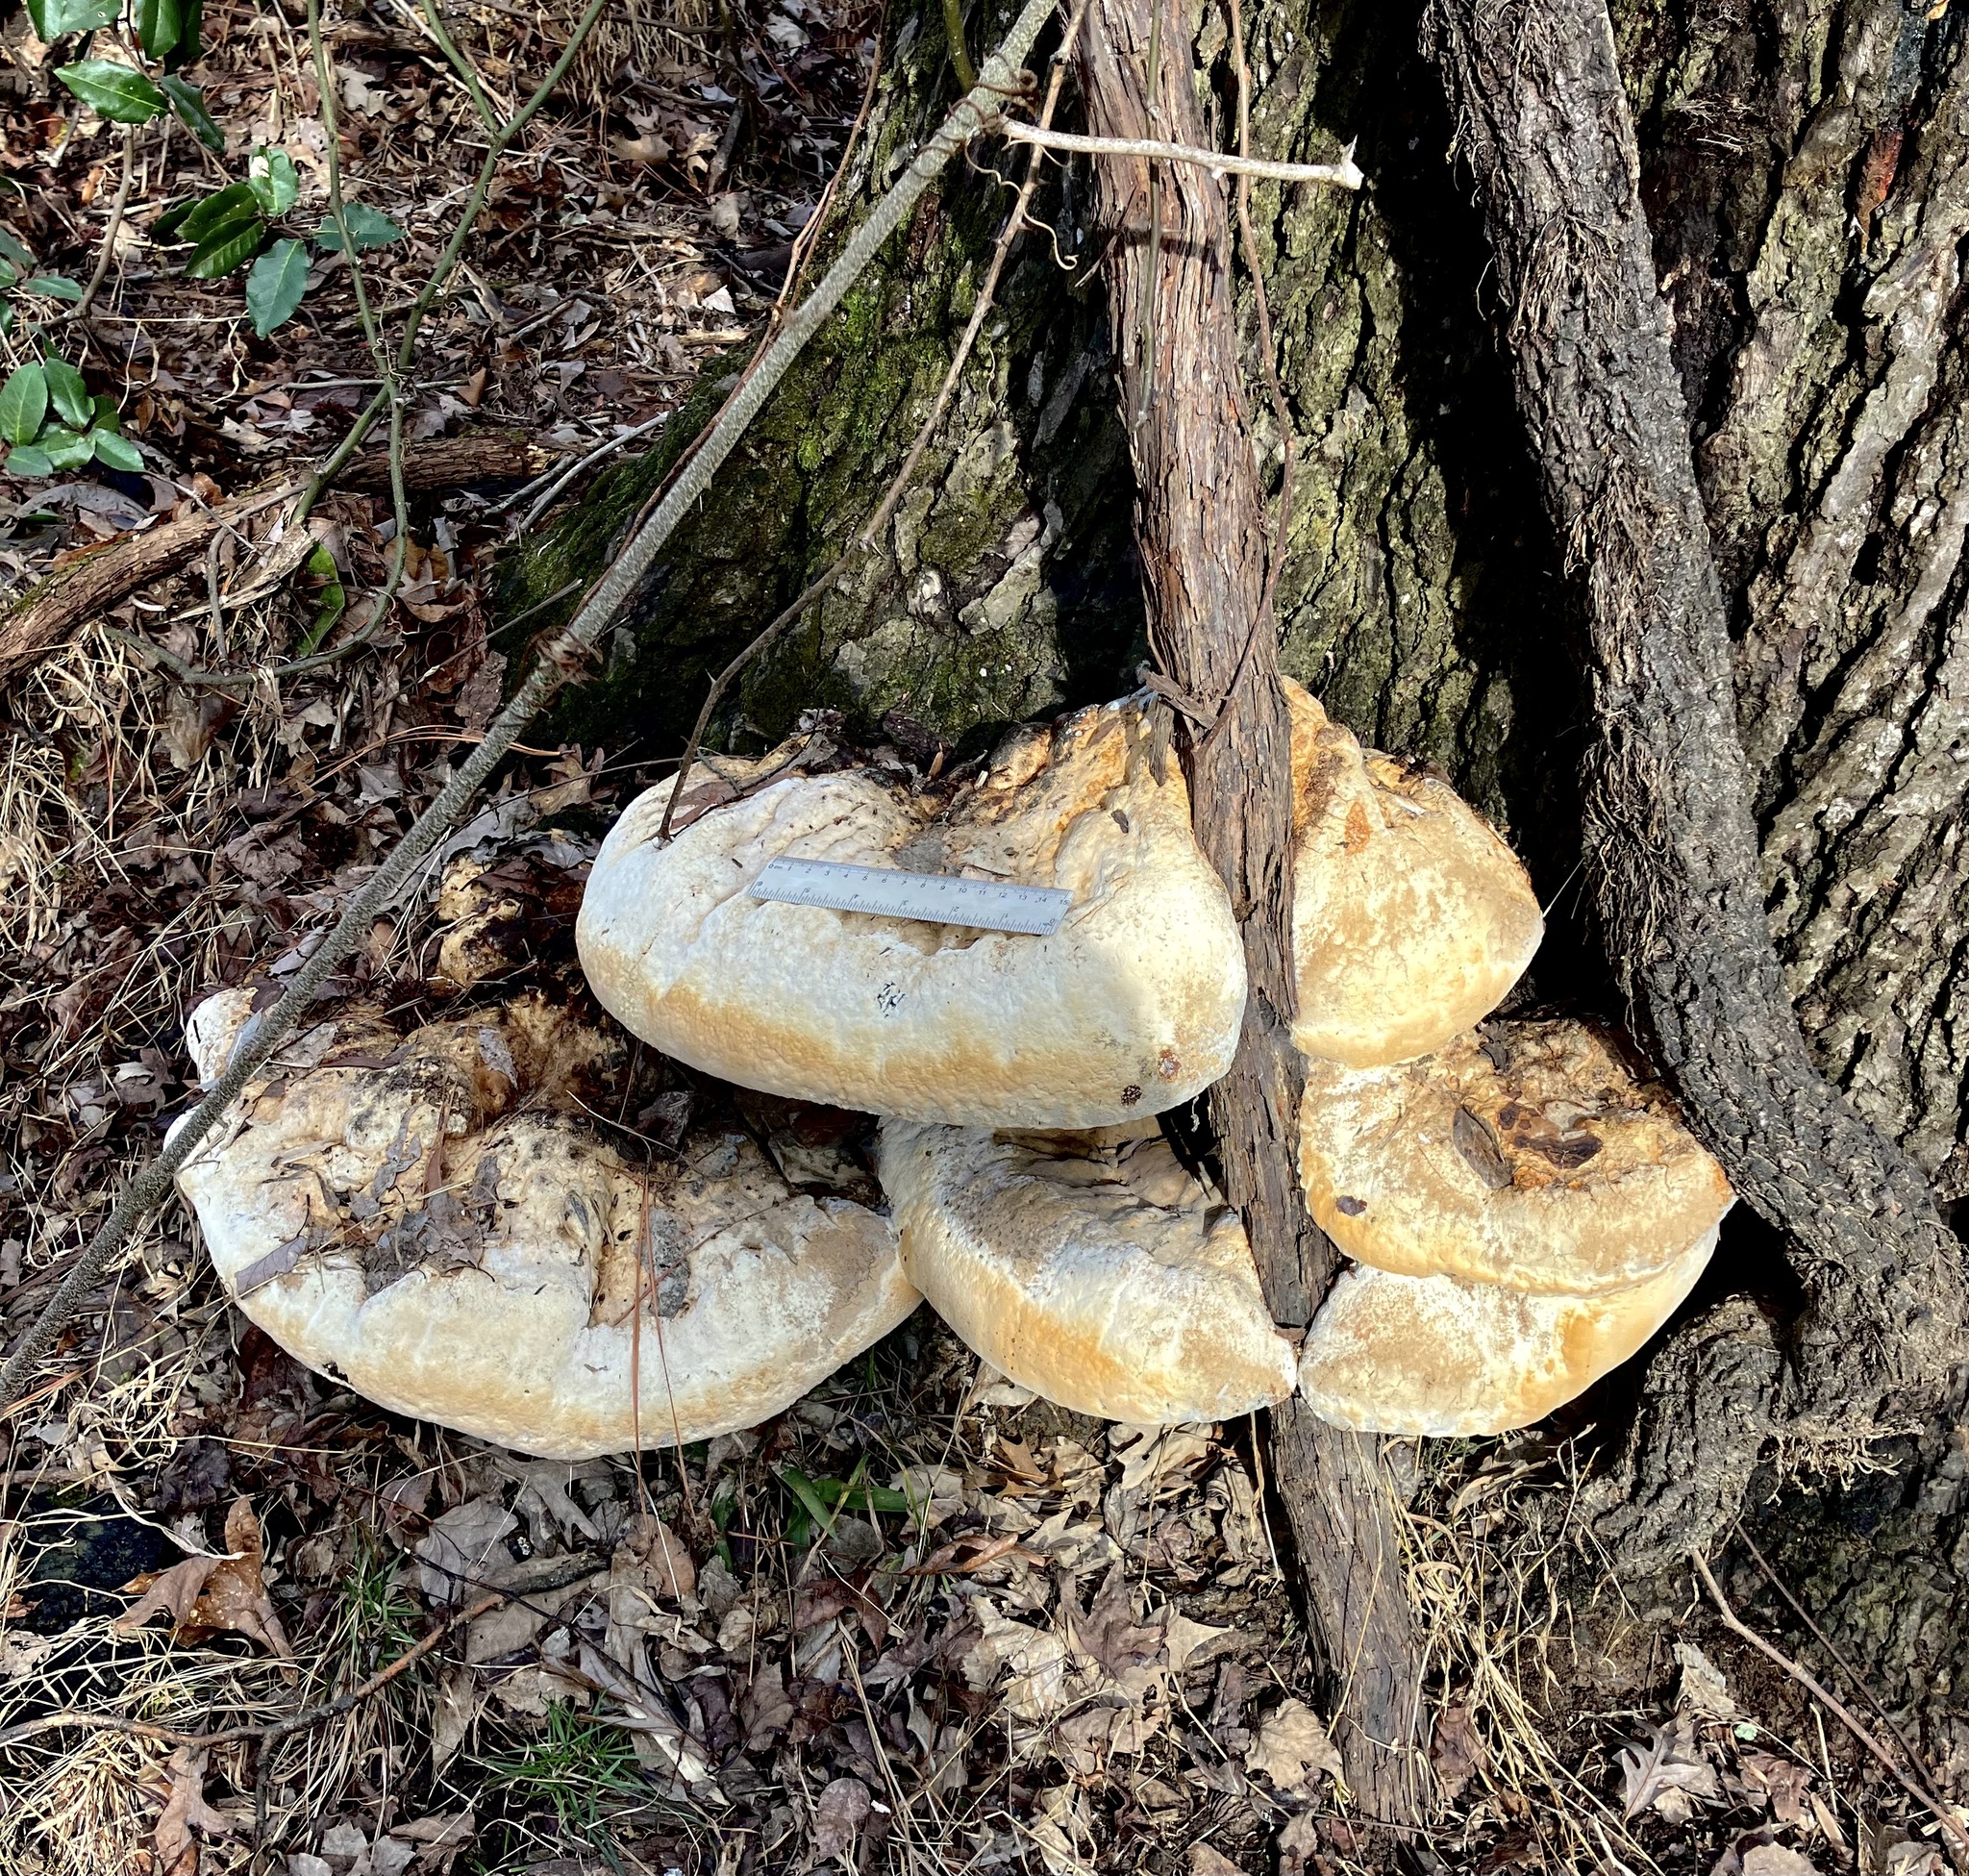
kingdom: Fungi
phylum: Basidiomycota
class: Agaricomycetes
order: Hymenochaetales
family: Hymenochaetaceae
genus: Pseudoinonotus
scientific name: Pseudoinonotus dryadeus
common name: Oak bracket
